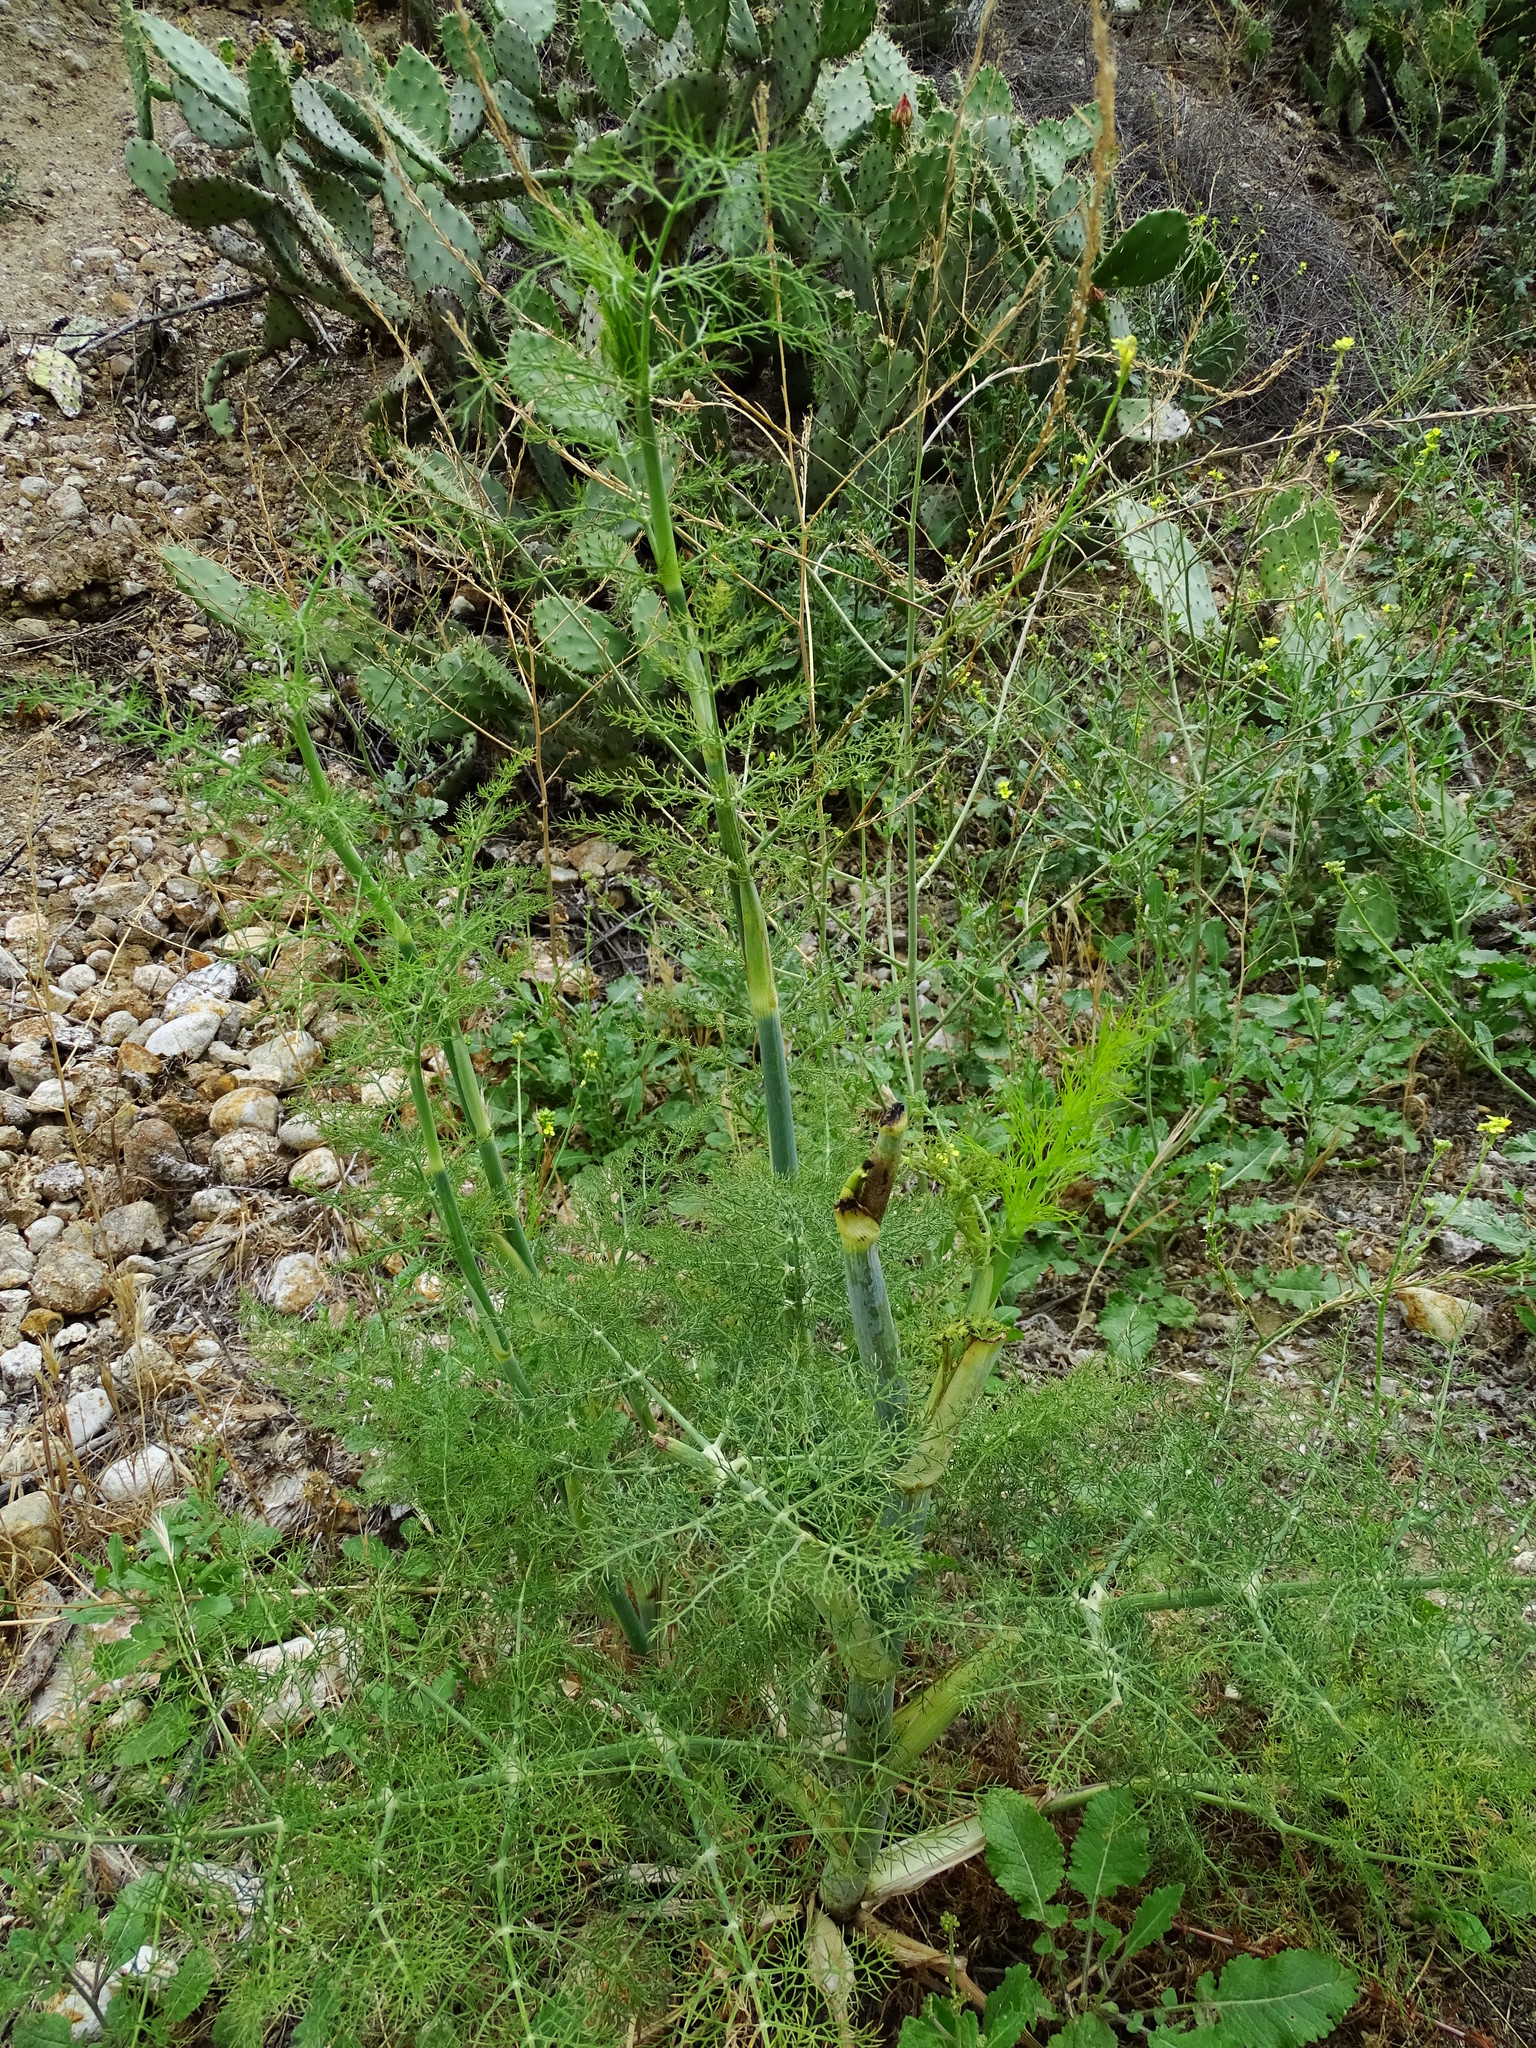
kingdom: Plantae
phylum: Tracheophyta
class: Magnoliopsida
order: Apiales
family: Apiaceae
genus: Foeniculum
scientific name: Foeniculum vulgare
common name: Fennel
